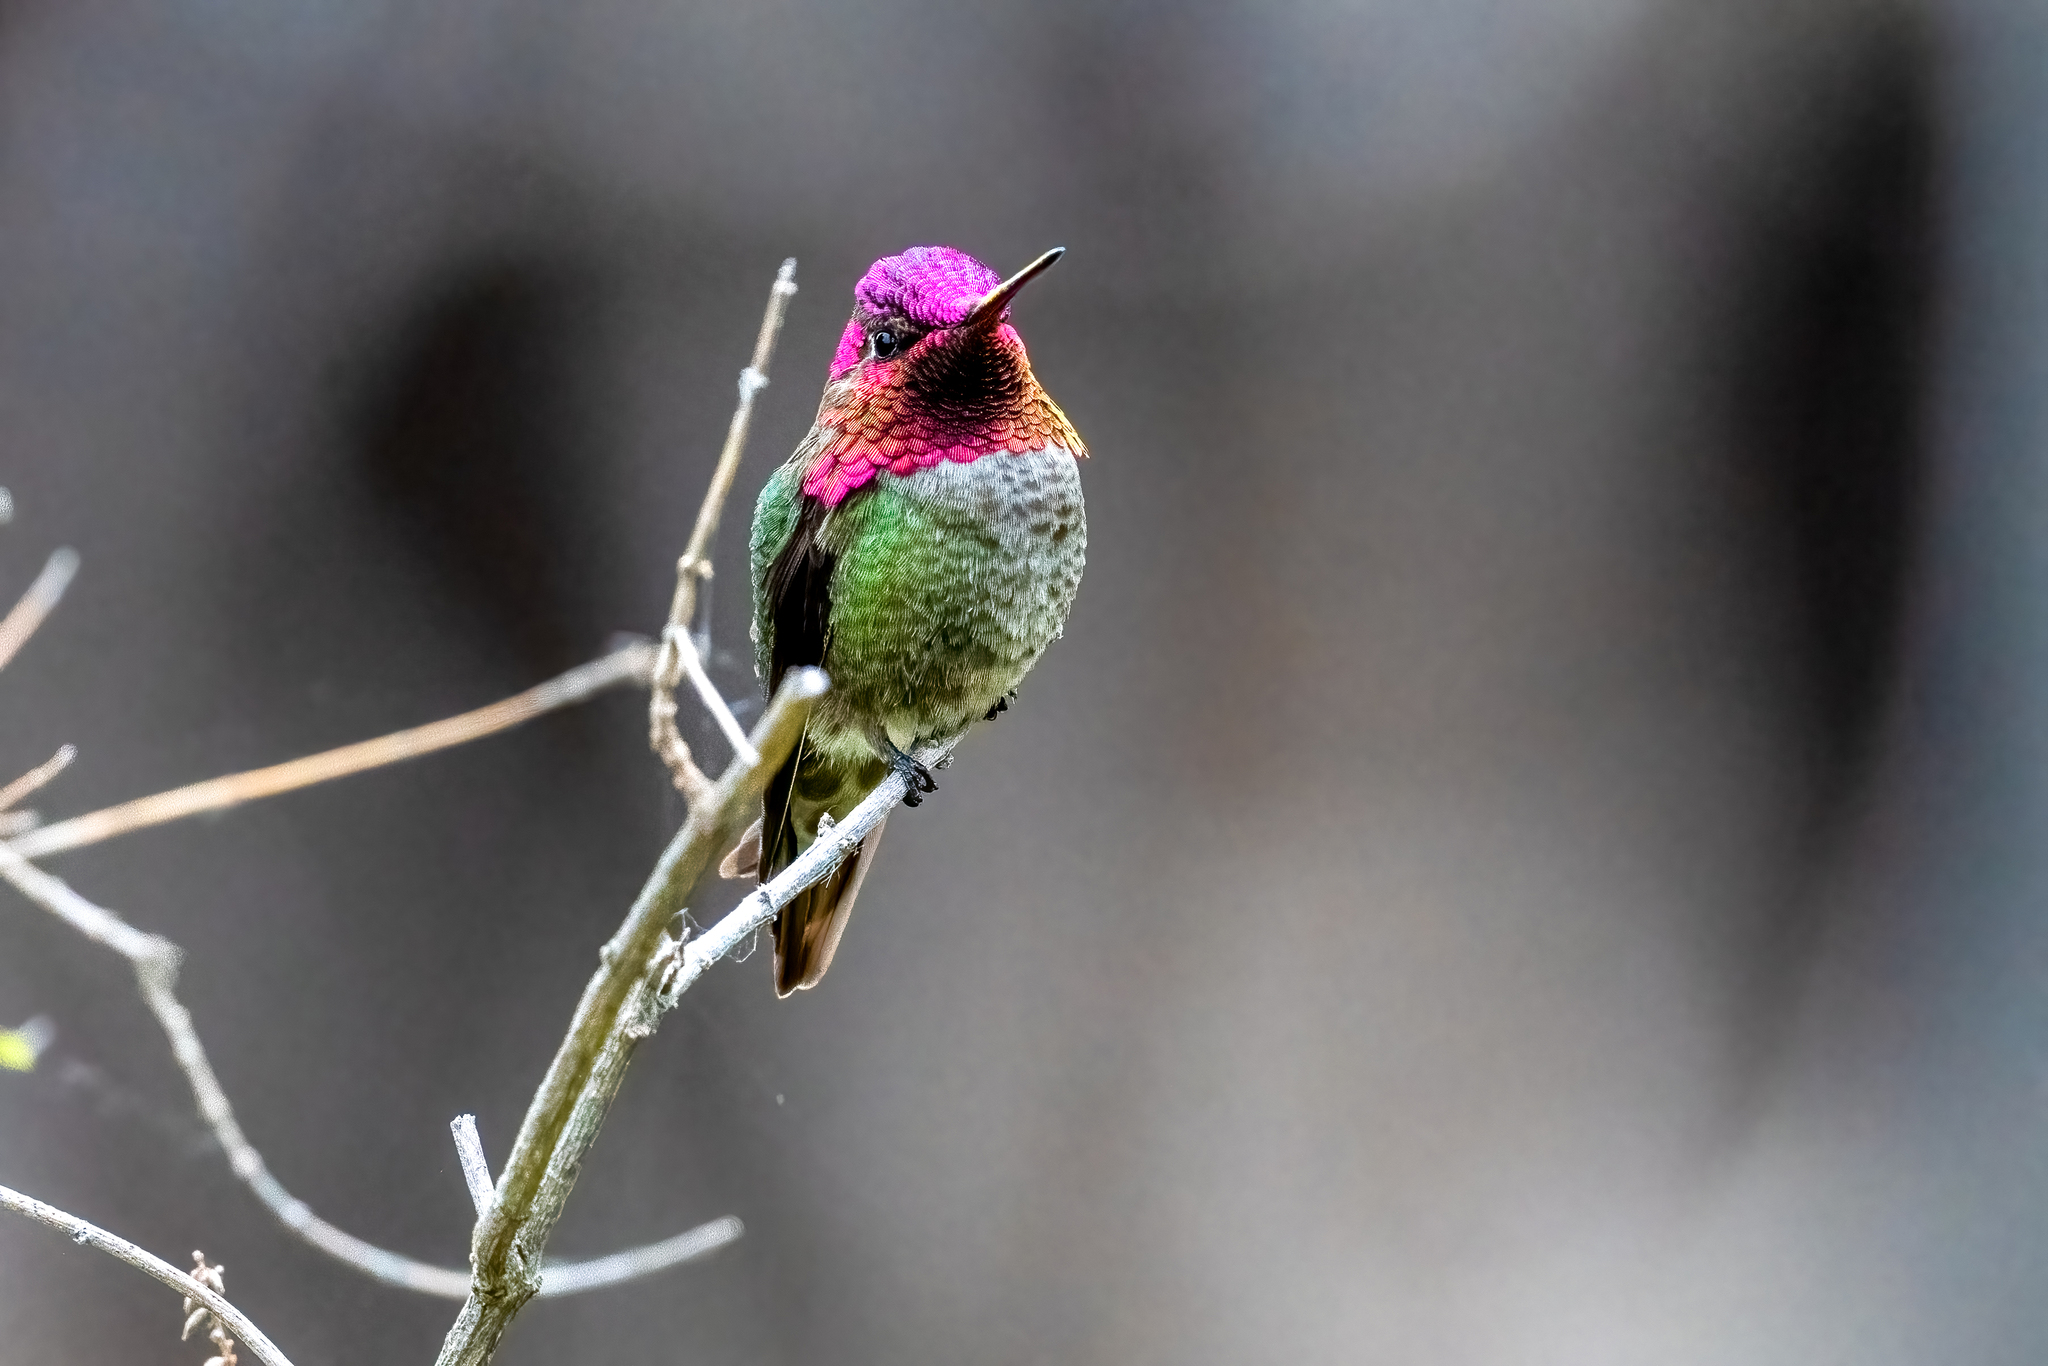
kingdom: Animalia
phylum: Chordata
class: Aves
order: Apodiformes
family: Trochilidae
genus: Calypte
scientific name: Calypte anna
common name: Anna's hummingbird
